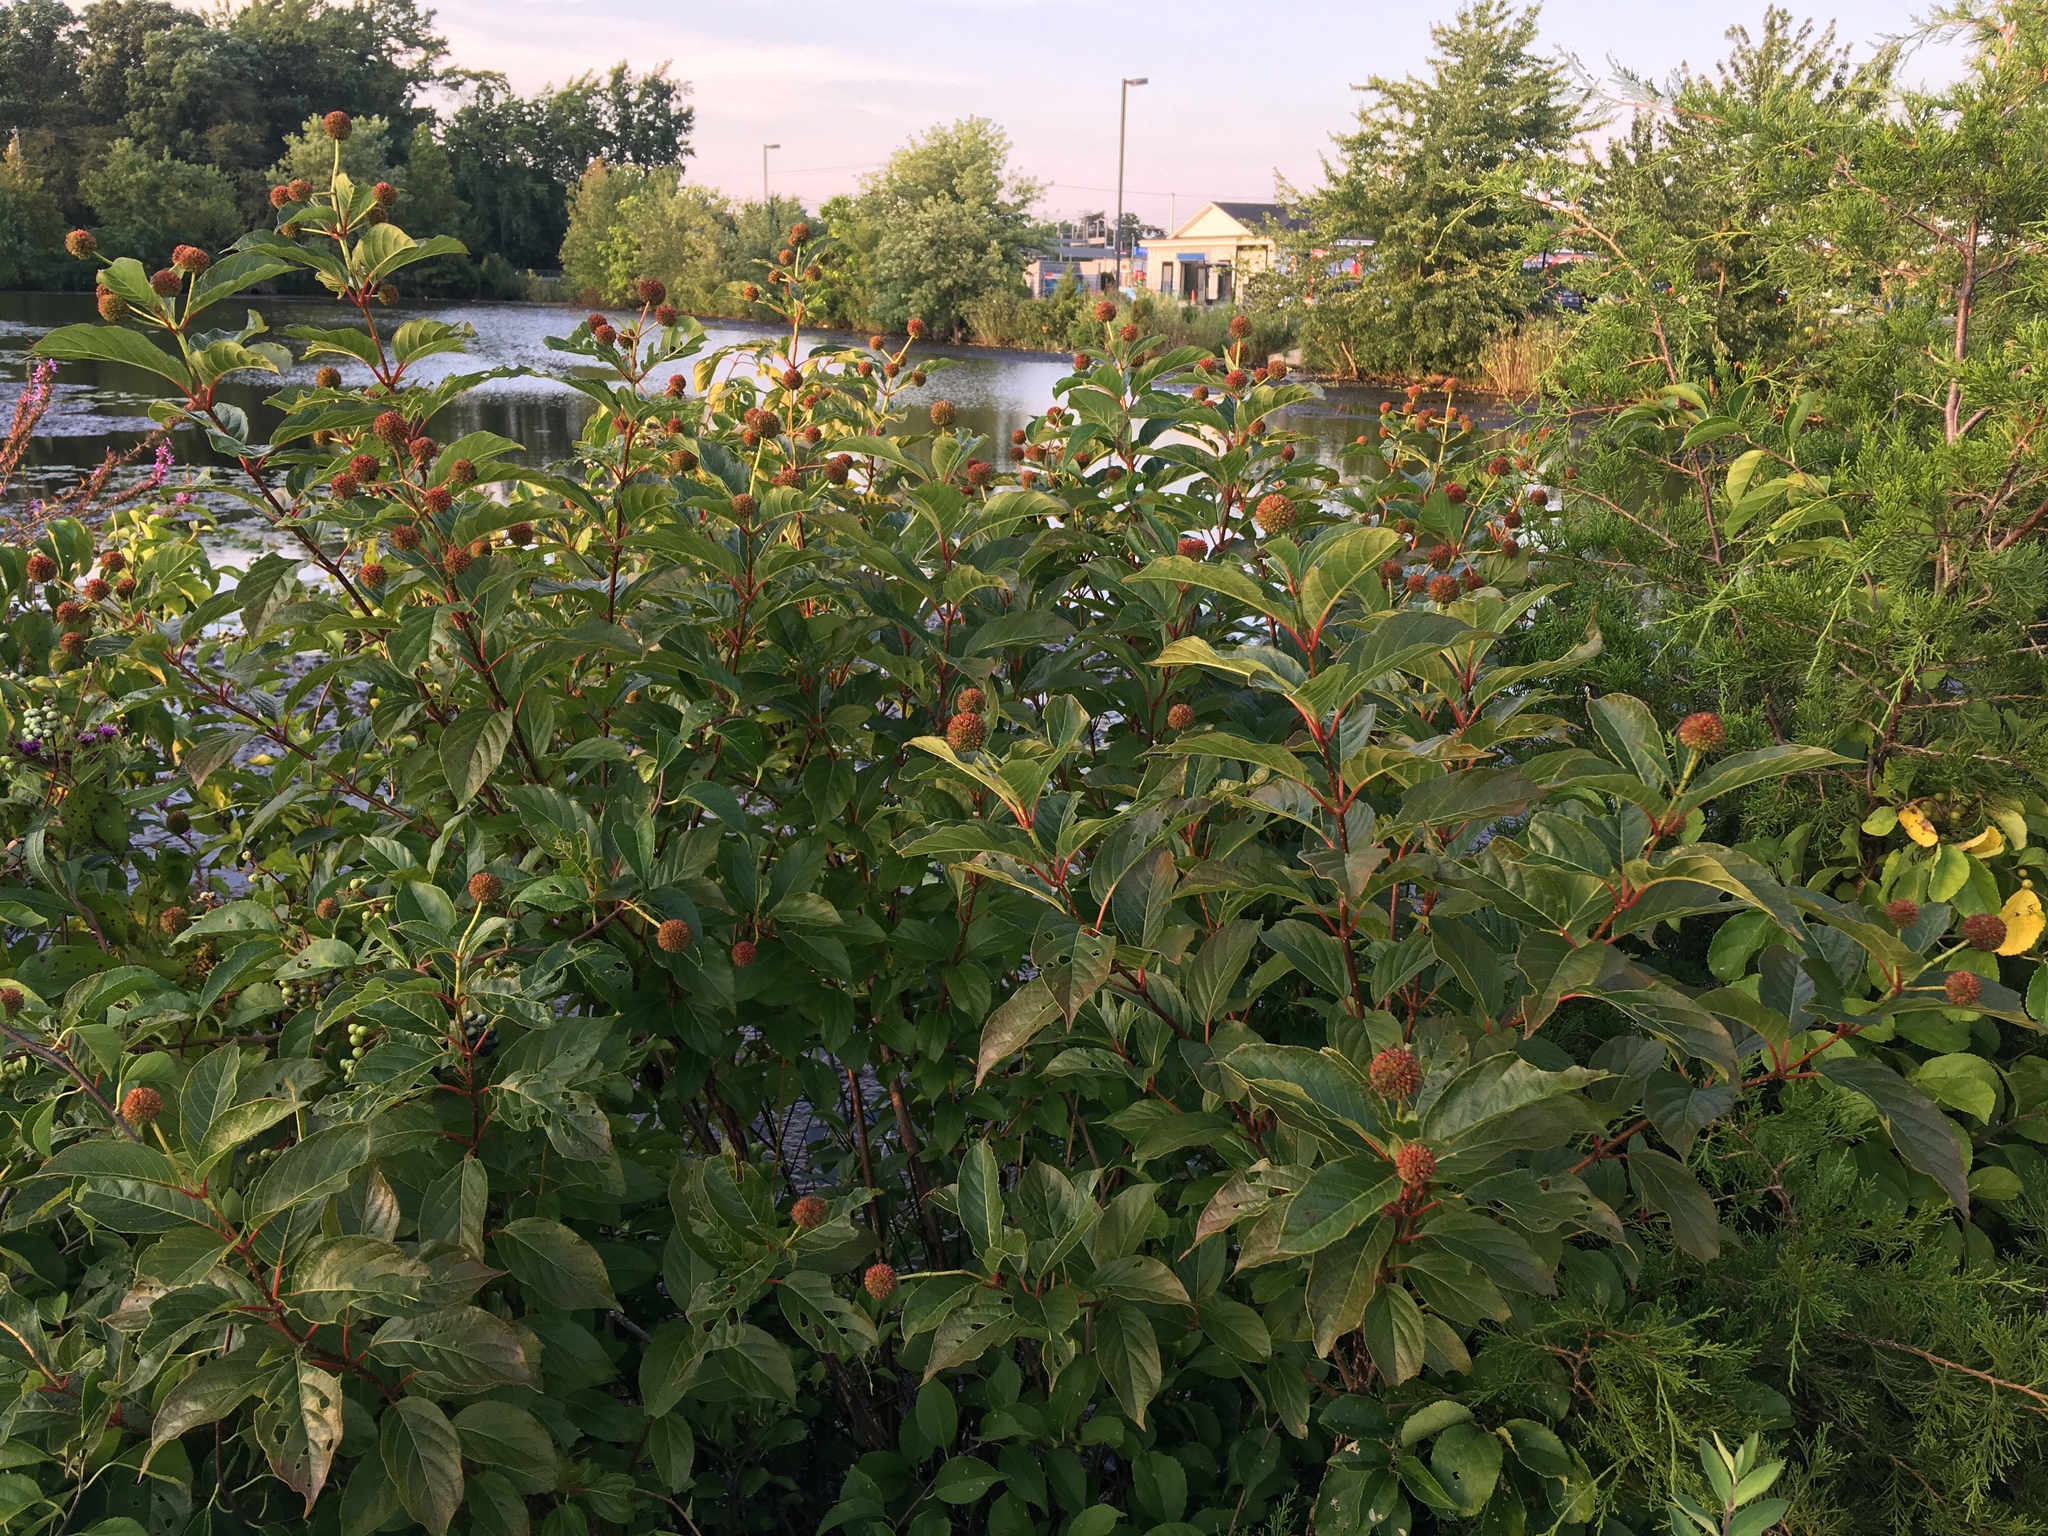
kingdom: Plantae
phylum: Tracheophyta
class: Magnoliopsida
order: Gentianales
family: Rubiaceae
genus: Cephalanthus
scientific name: Cephalanthus occidentalis
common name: Button-willow
